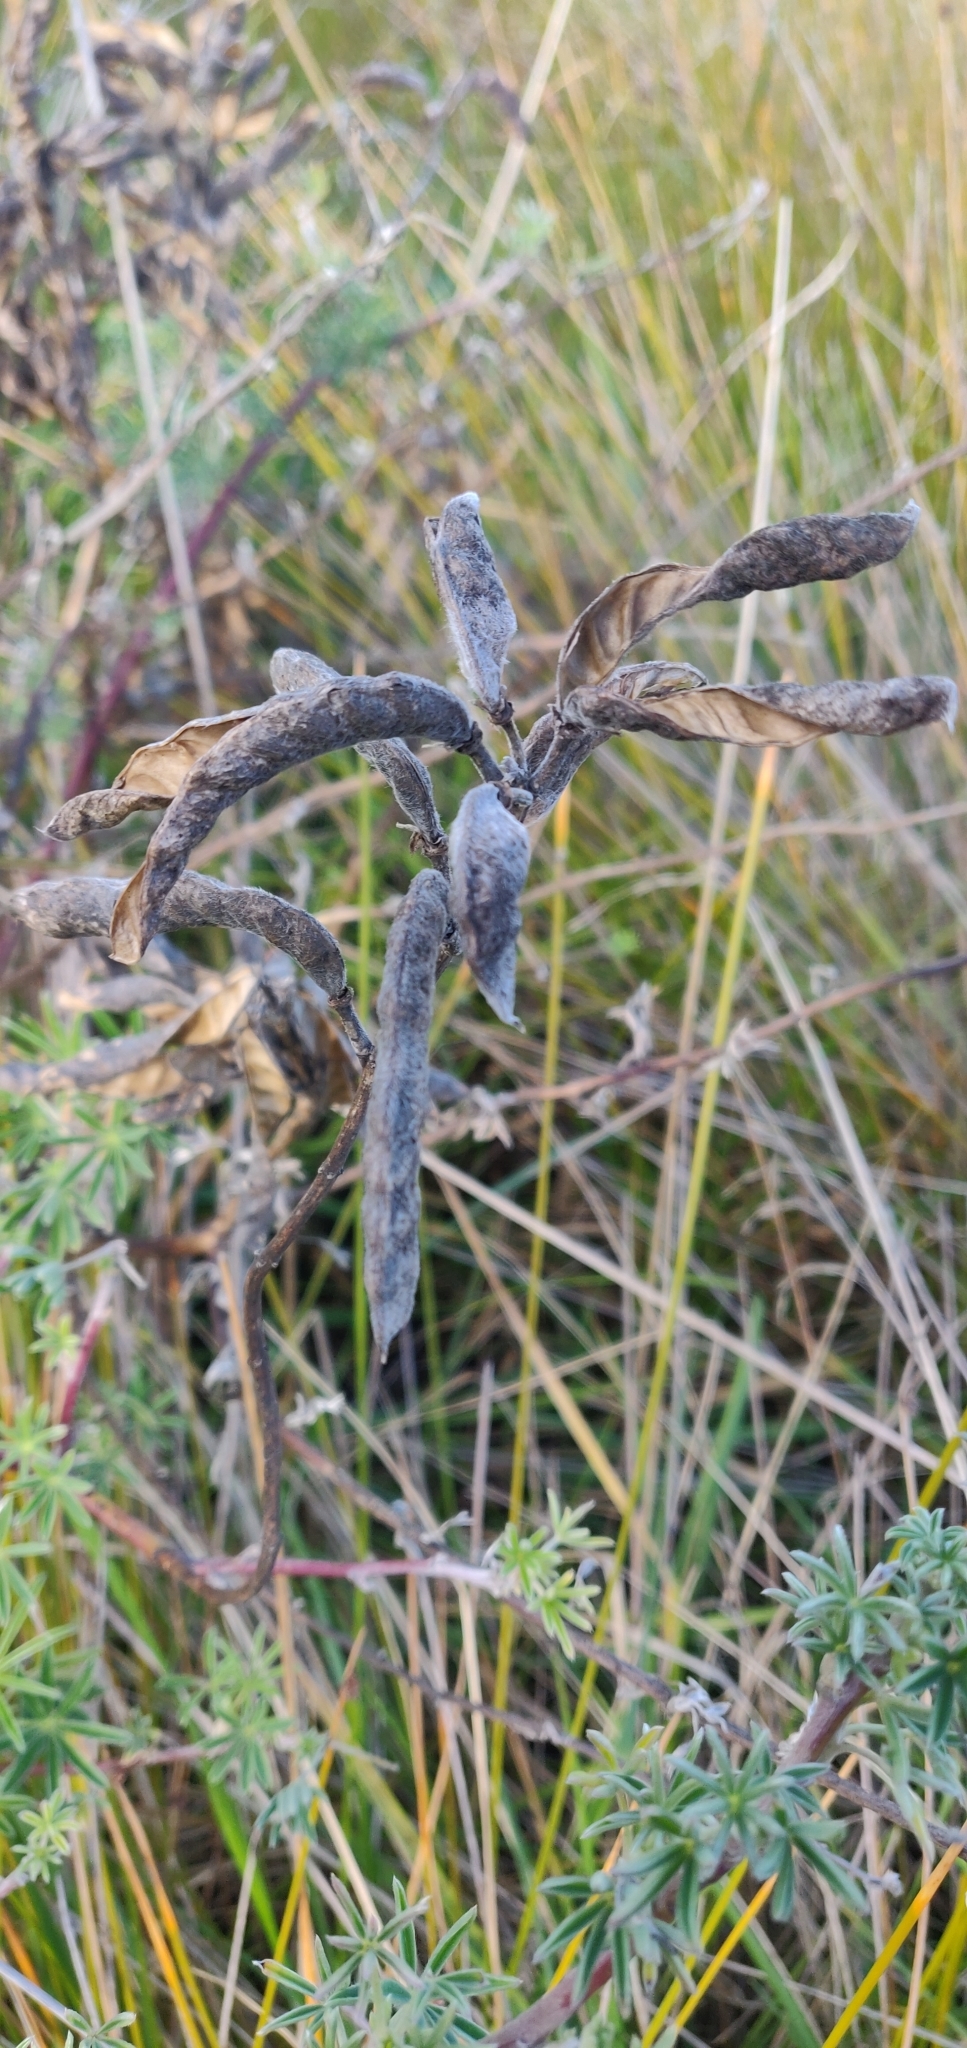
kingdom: Plantae
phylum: Tracheophyta
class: Magnoliopsida
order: Fabales
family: Fabaceae
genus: Lupinus
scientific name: Lupinus arboreus
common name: Yellow bush lupine
